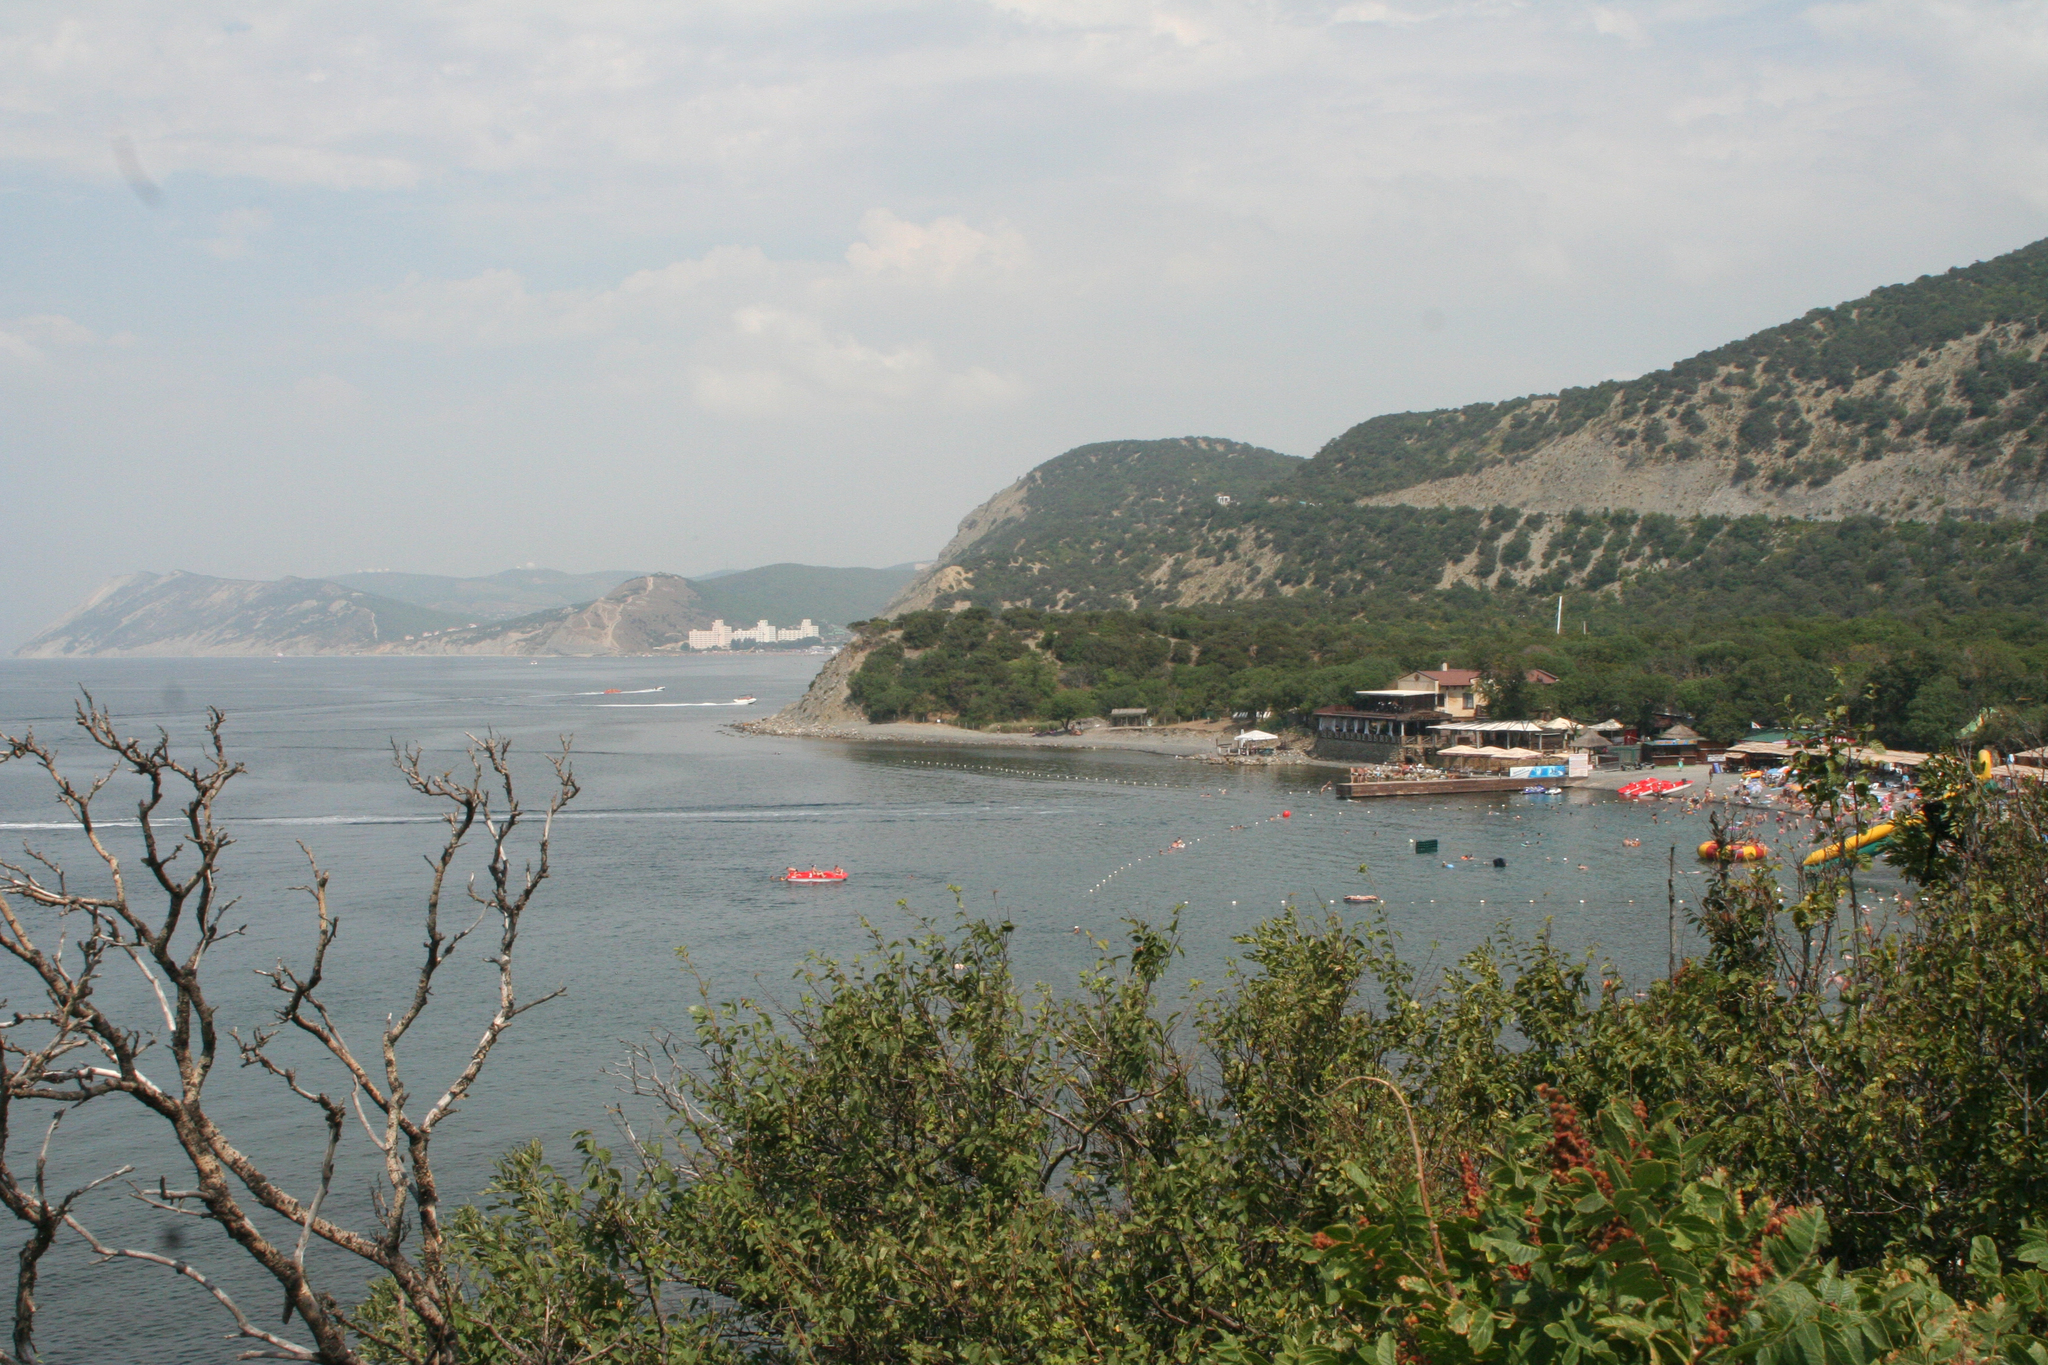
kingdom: Plantae
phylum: Tracheophyta
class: Magnoliopsida
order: Fagales
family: Betulaceae
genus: Carpinus
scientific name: Carpinus orientalis
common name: Eastern hornbeam
